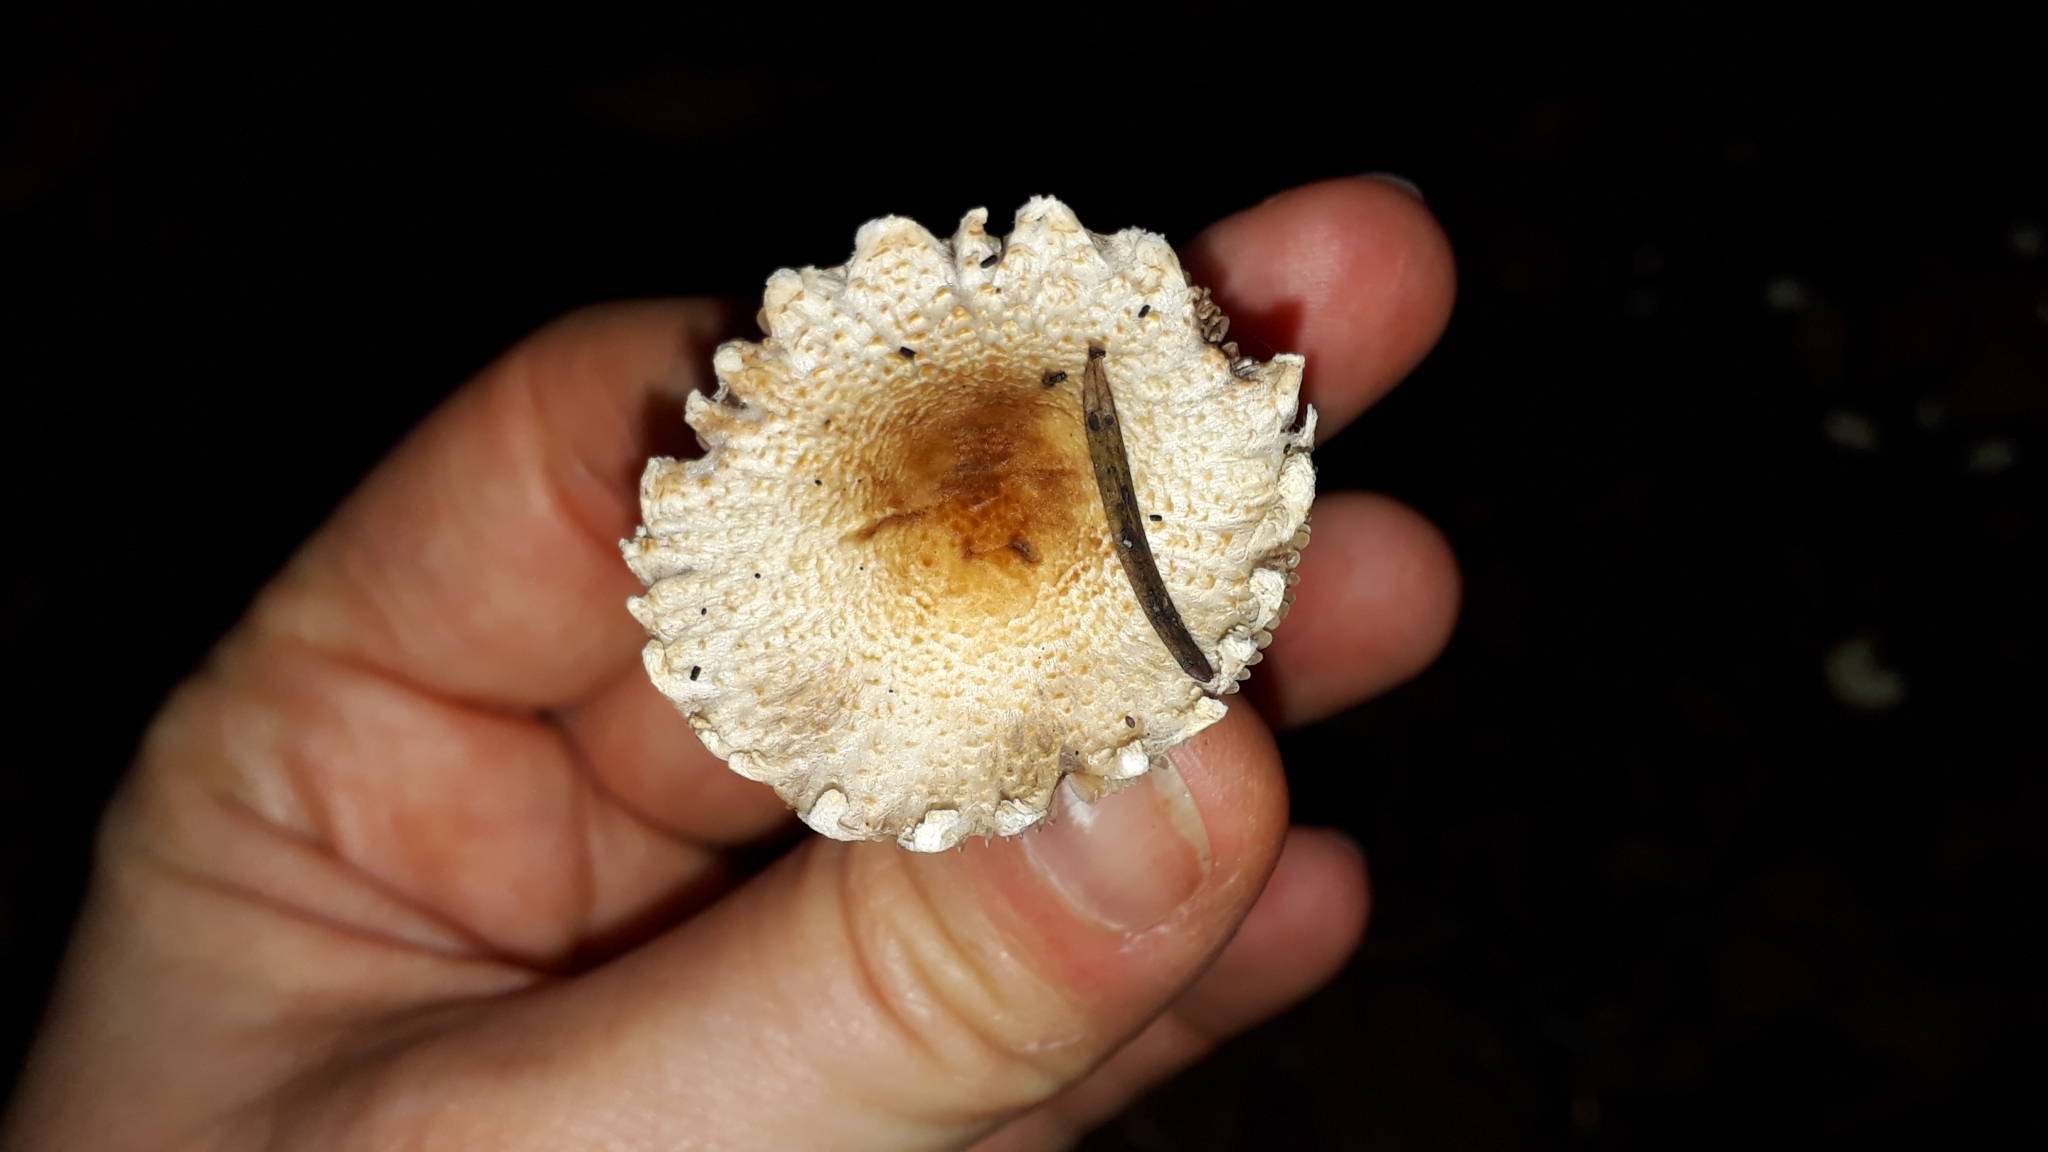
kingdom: Fungi
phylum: Basidiomycota
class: Agaricomycetes
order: Agaricales
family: Agaricaceae
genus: Lepiota
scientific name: Lepiota clypeolaria
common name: Shield dapperling
